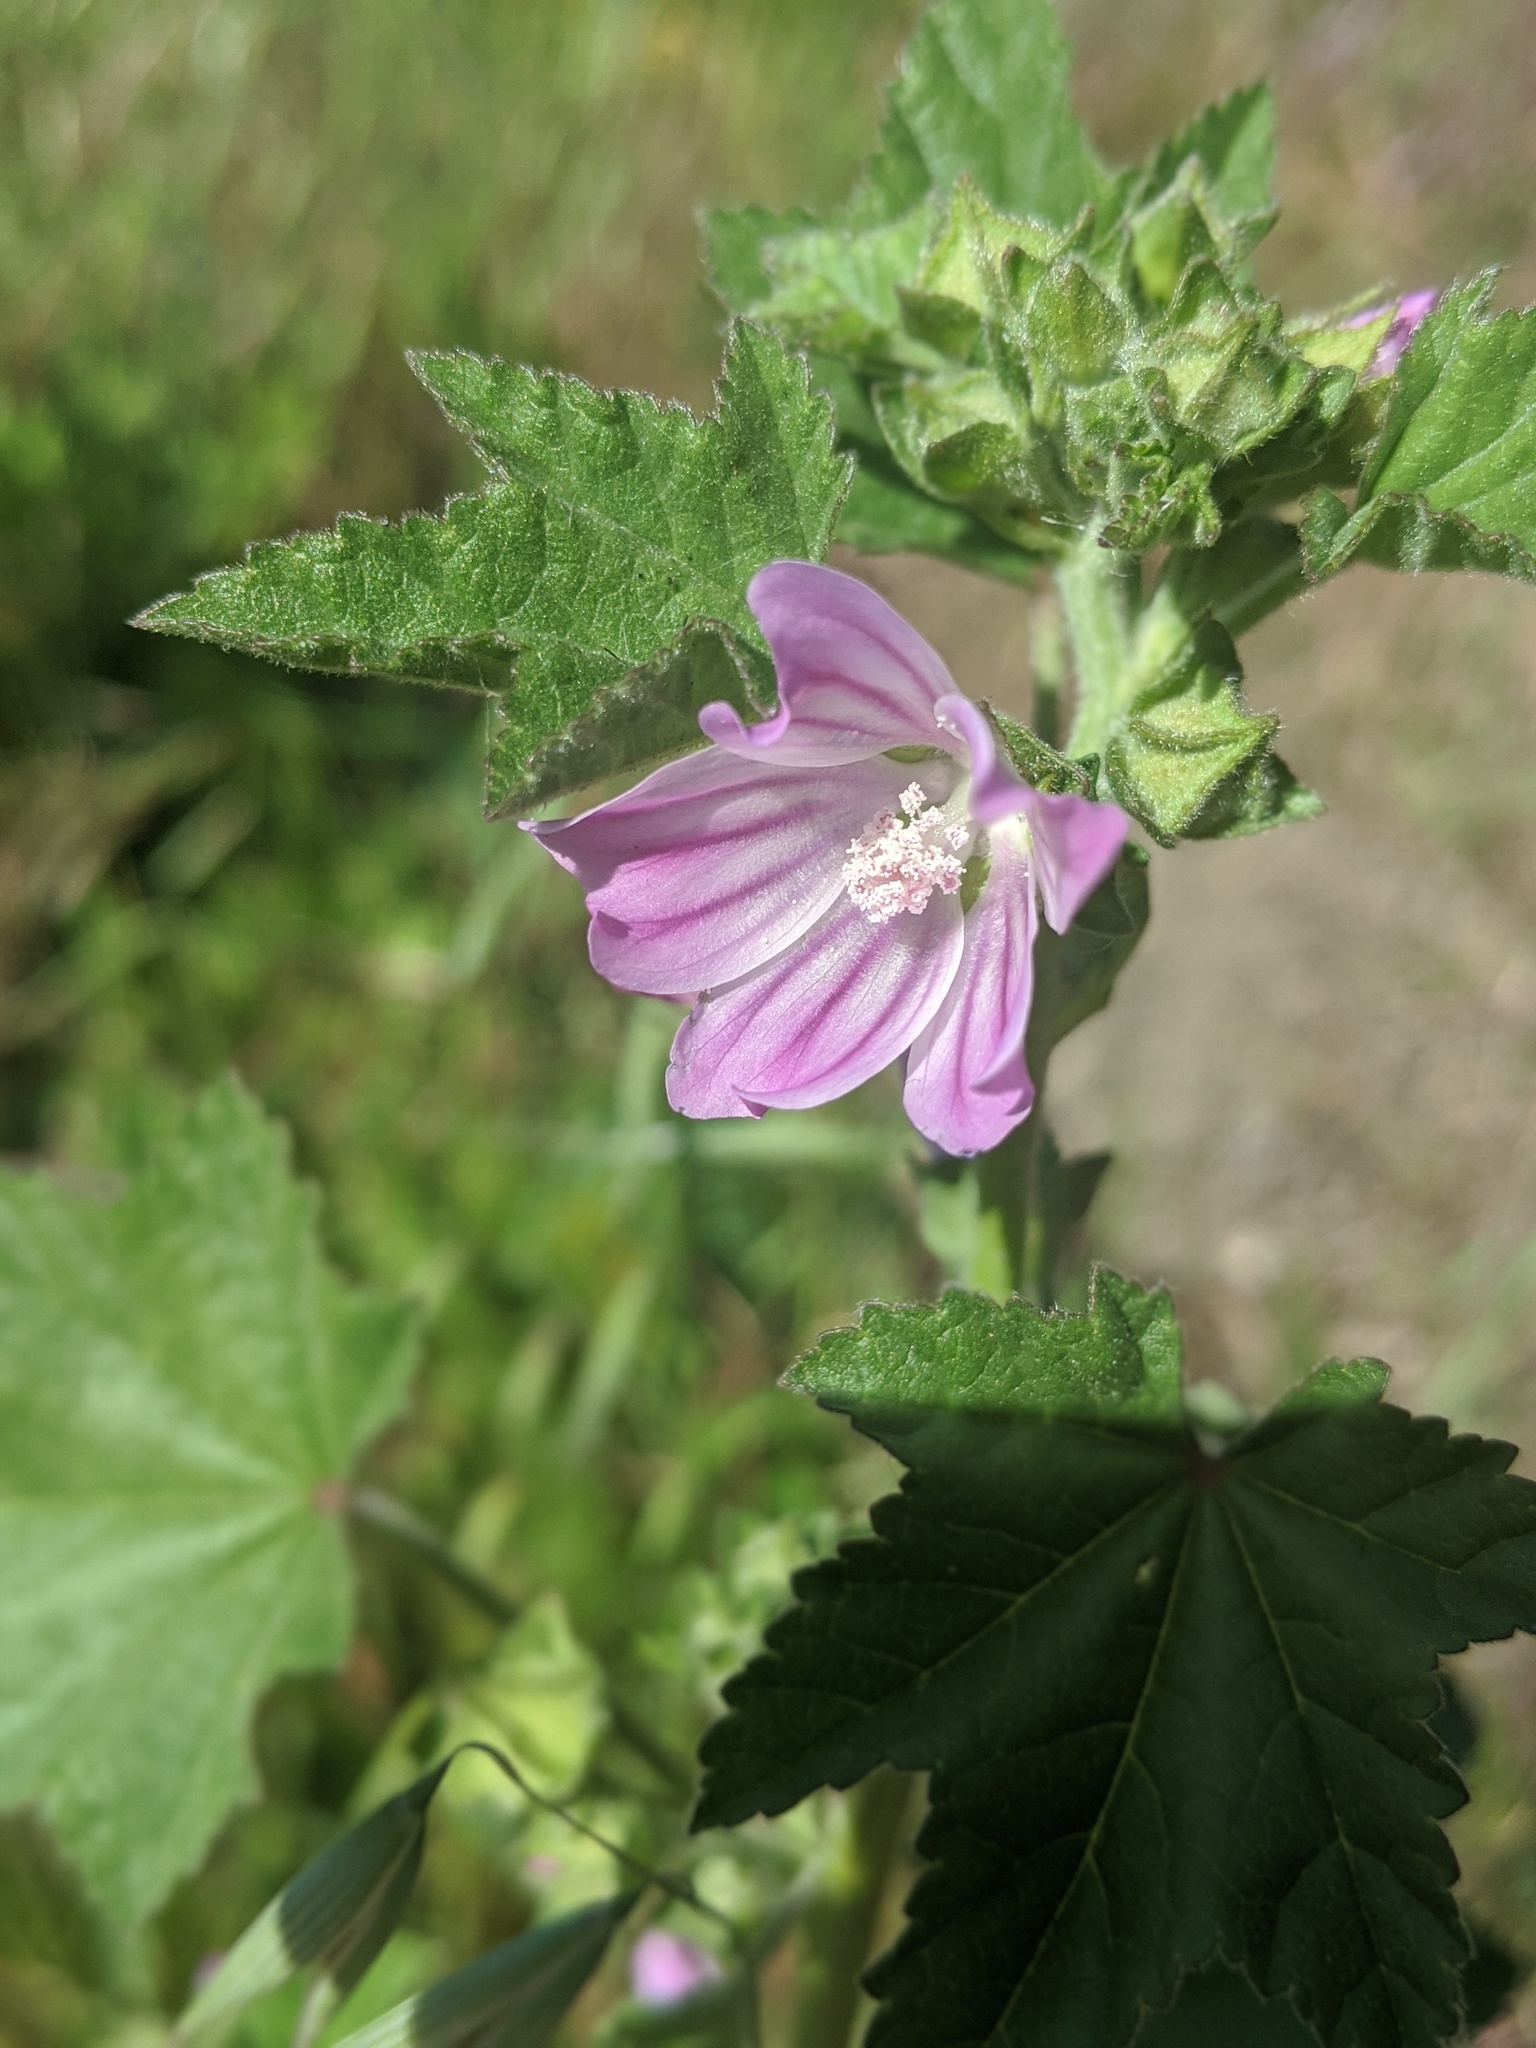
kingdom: Plantae
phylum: Tracheophyta
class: Magnoliopsida
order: Malvales
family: Malvaceae
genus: Malva
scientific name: Malva multiflora
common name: Cheeseweed
